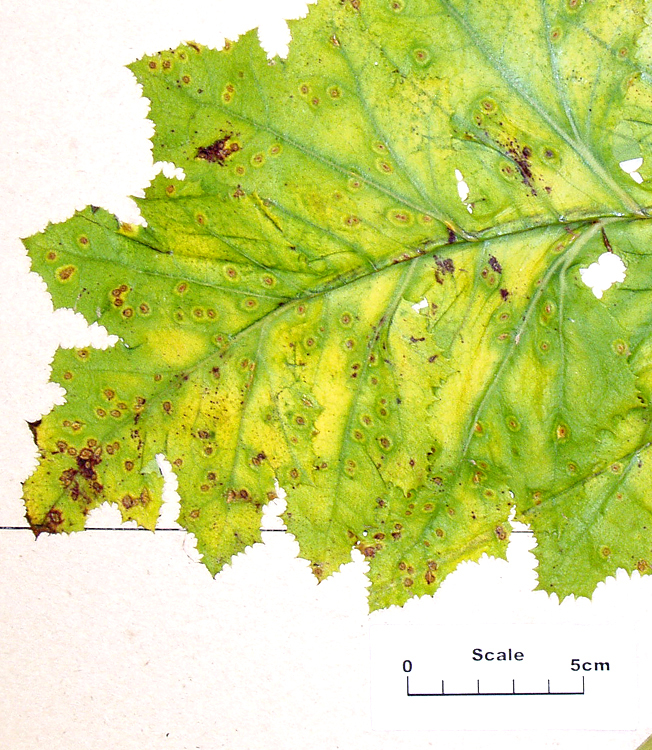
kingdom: Fungi
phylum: Basidiomycota
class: Pucciniomycetes
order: Pucciniales
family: Pucciniaceae
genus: Puccinia
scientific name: Puccinia embergeriae
